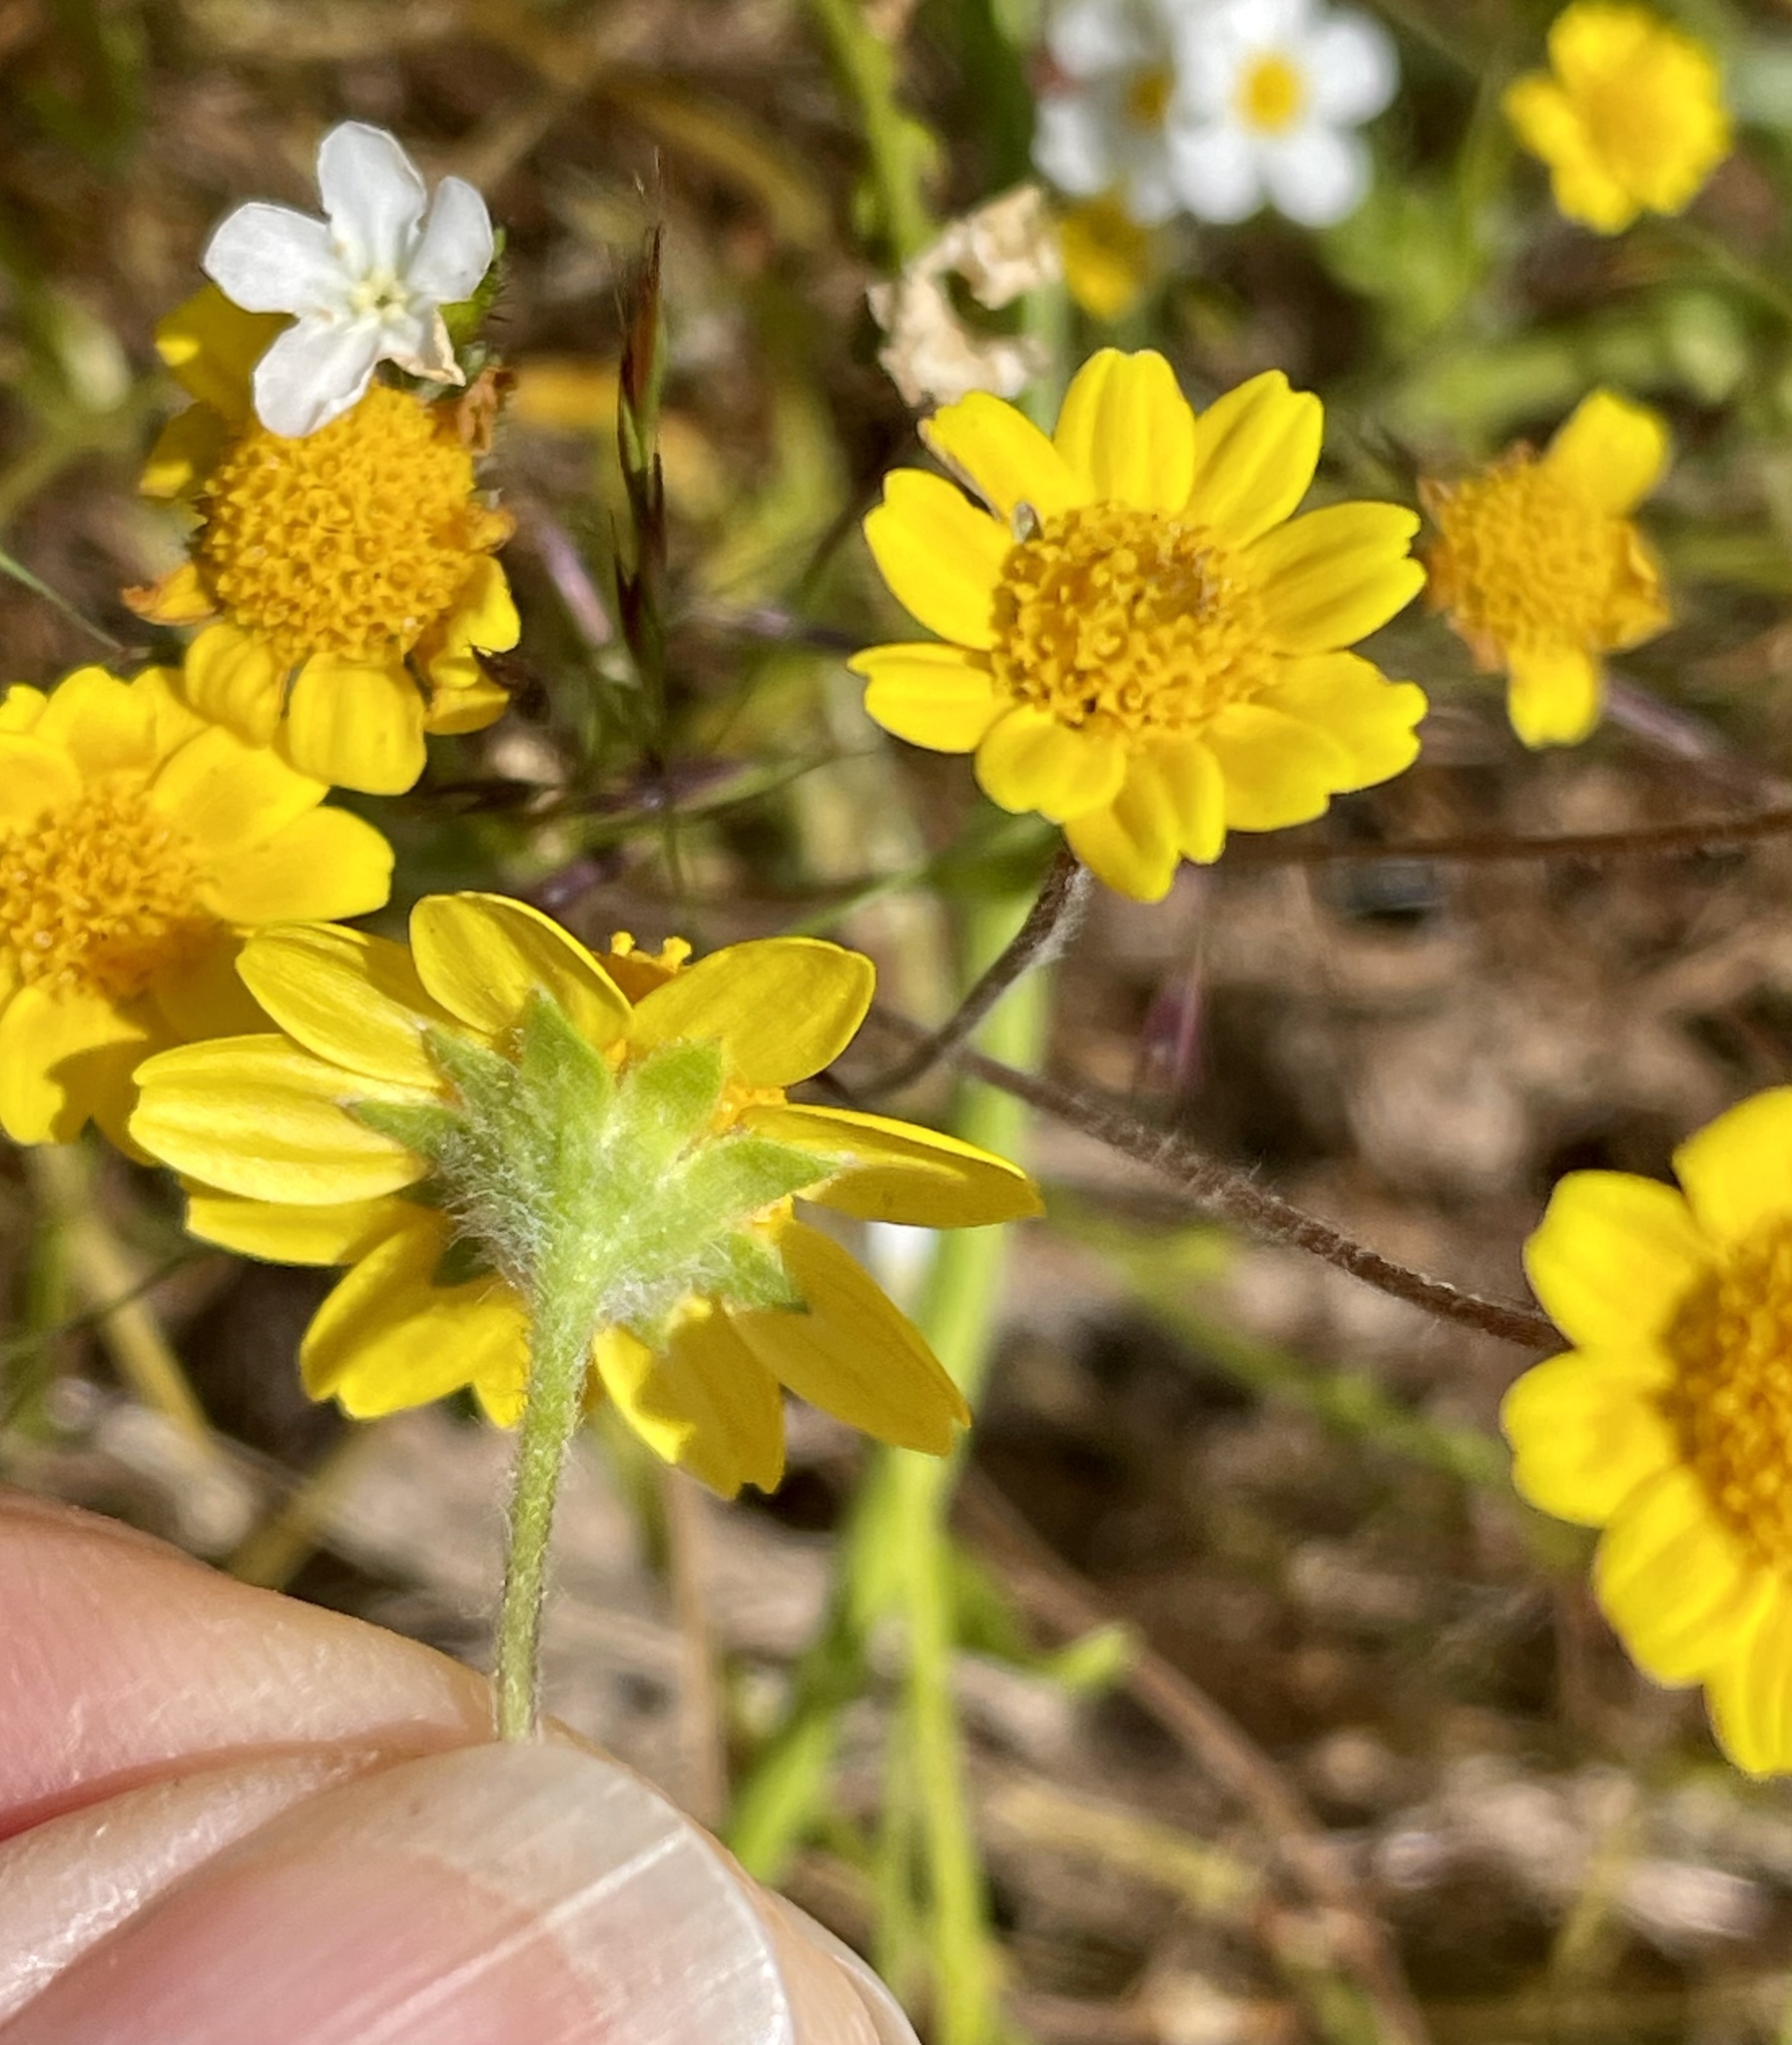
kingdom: Plantae
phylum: Tracheophyta
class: Magnoliopsida
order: Asterales
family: Asteraceae
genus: Lasthenia
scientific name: Lasthenia conjugens
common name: Contra costa goldfields
